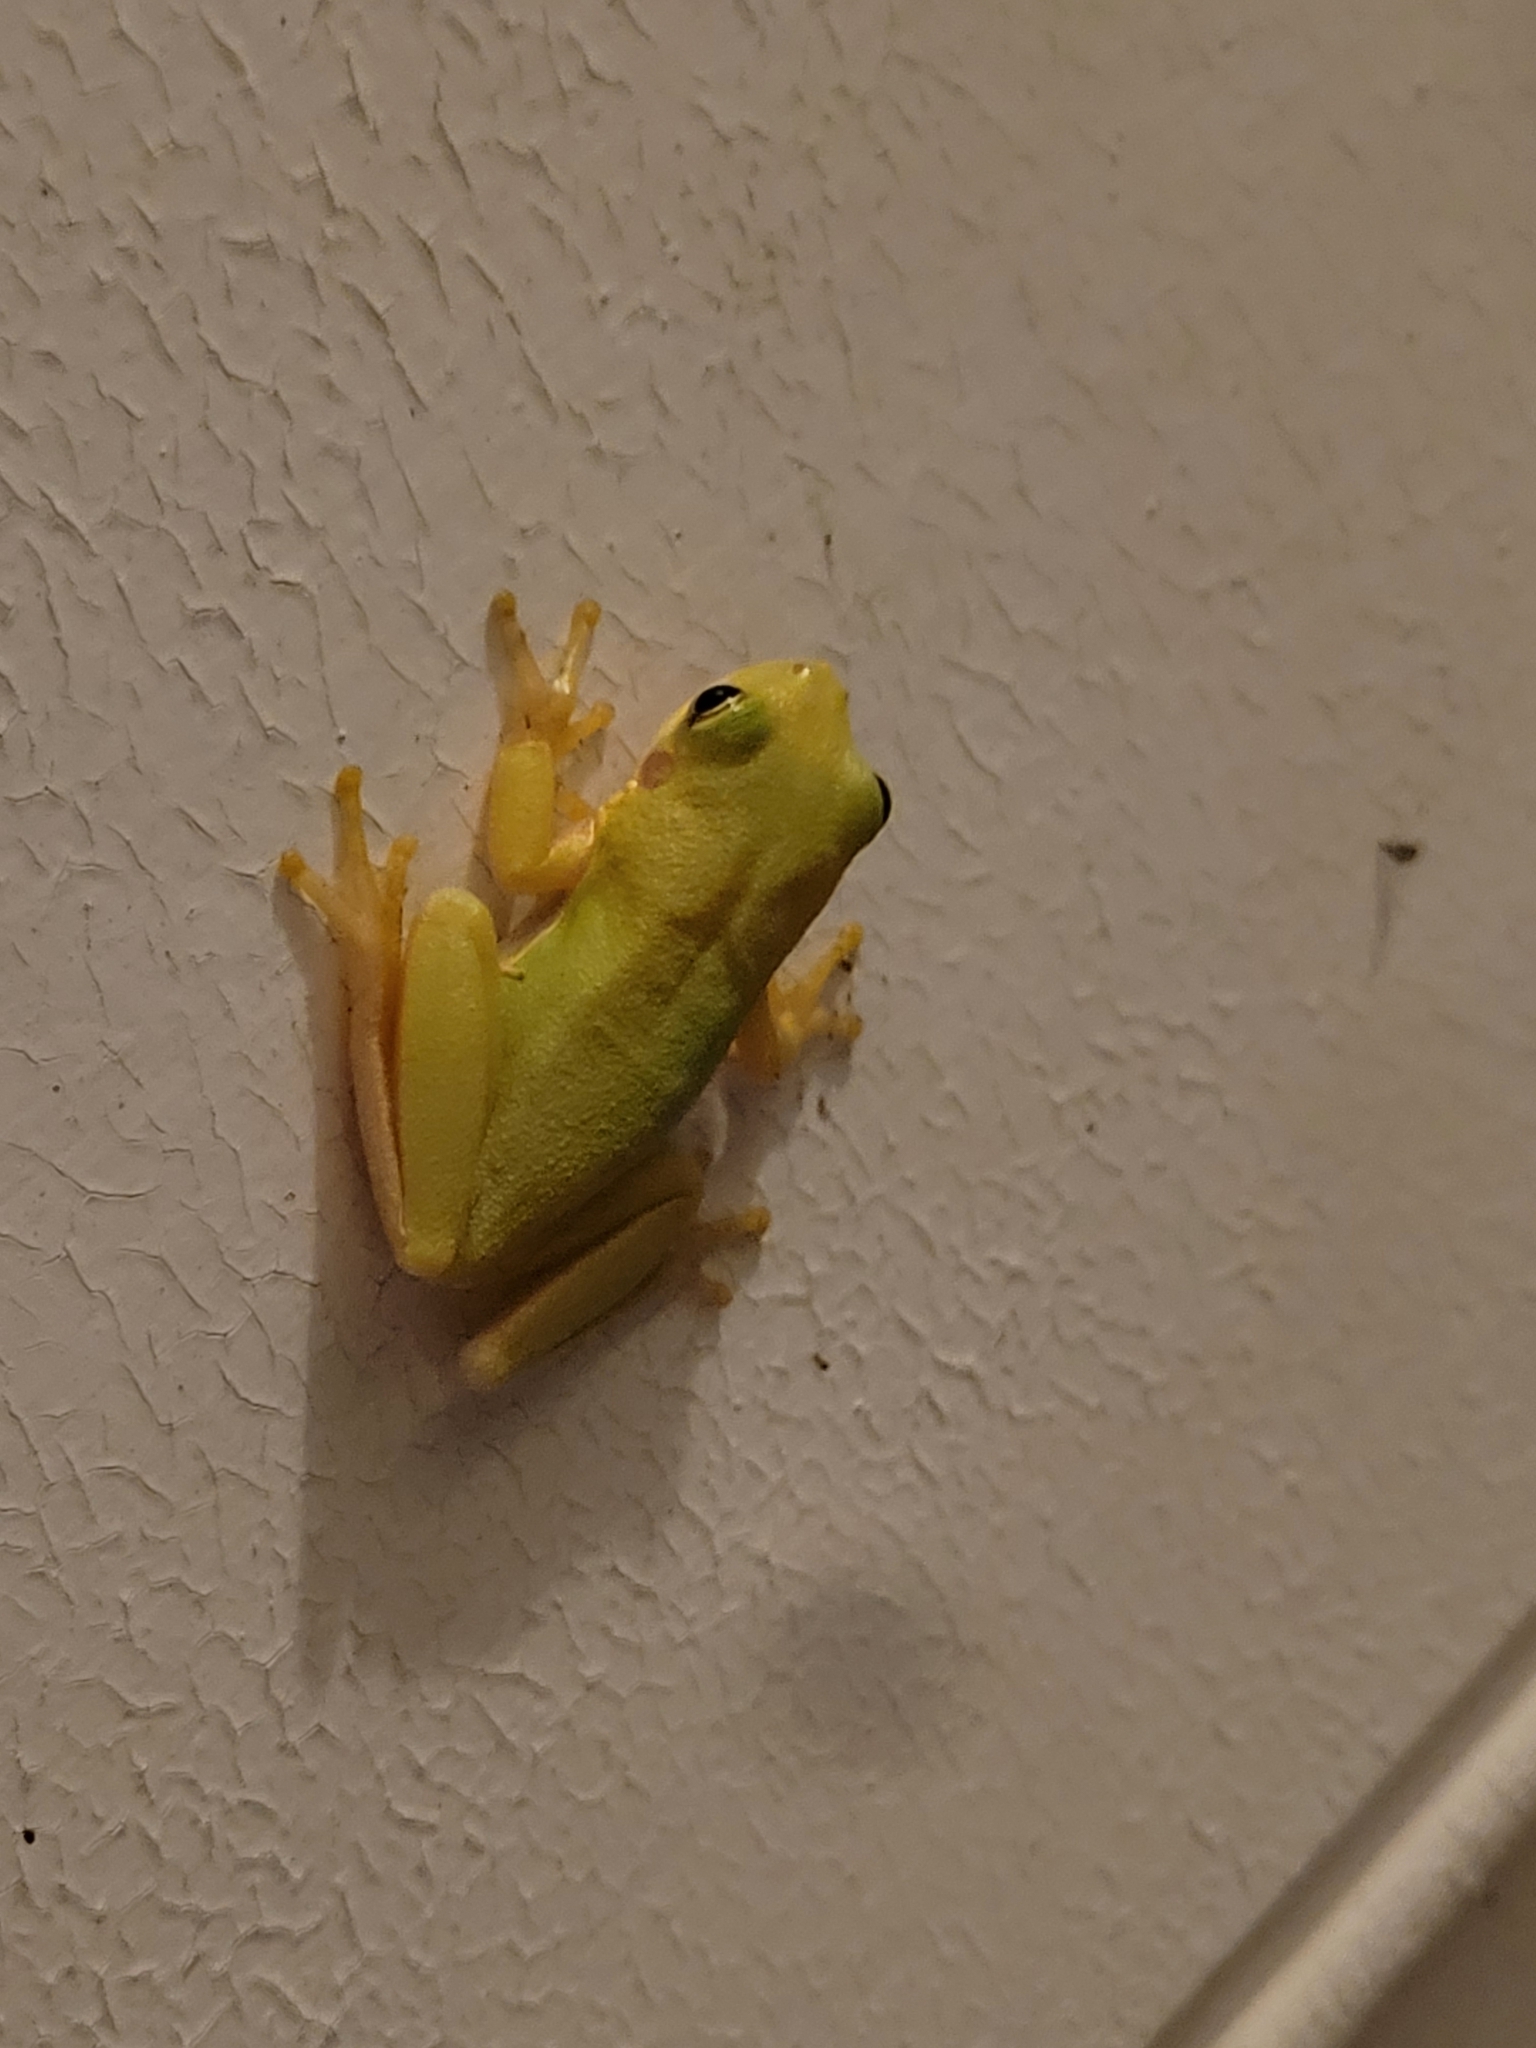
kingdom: Animalia
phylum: Chordata
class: Amphibia
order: Anura
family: Hylidae
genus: Dryophytes
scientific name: Dryophytes squirellus
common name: Squirrel treefrog
